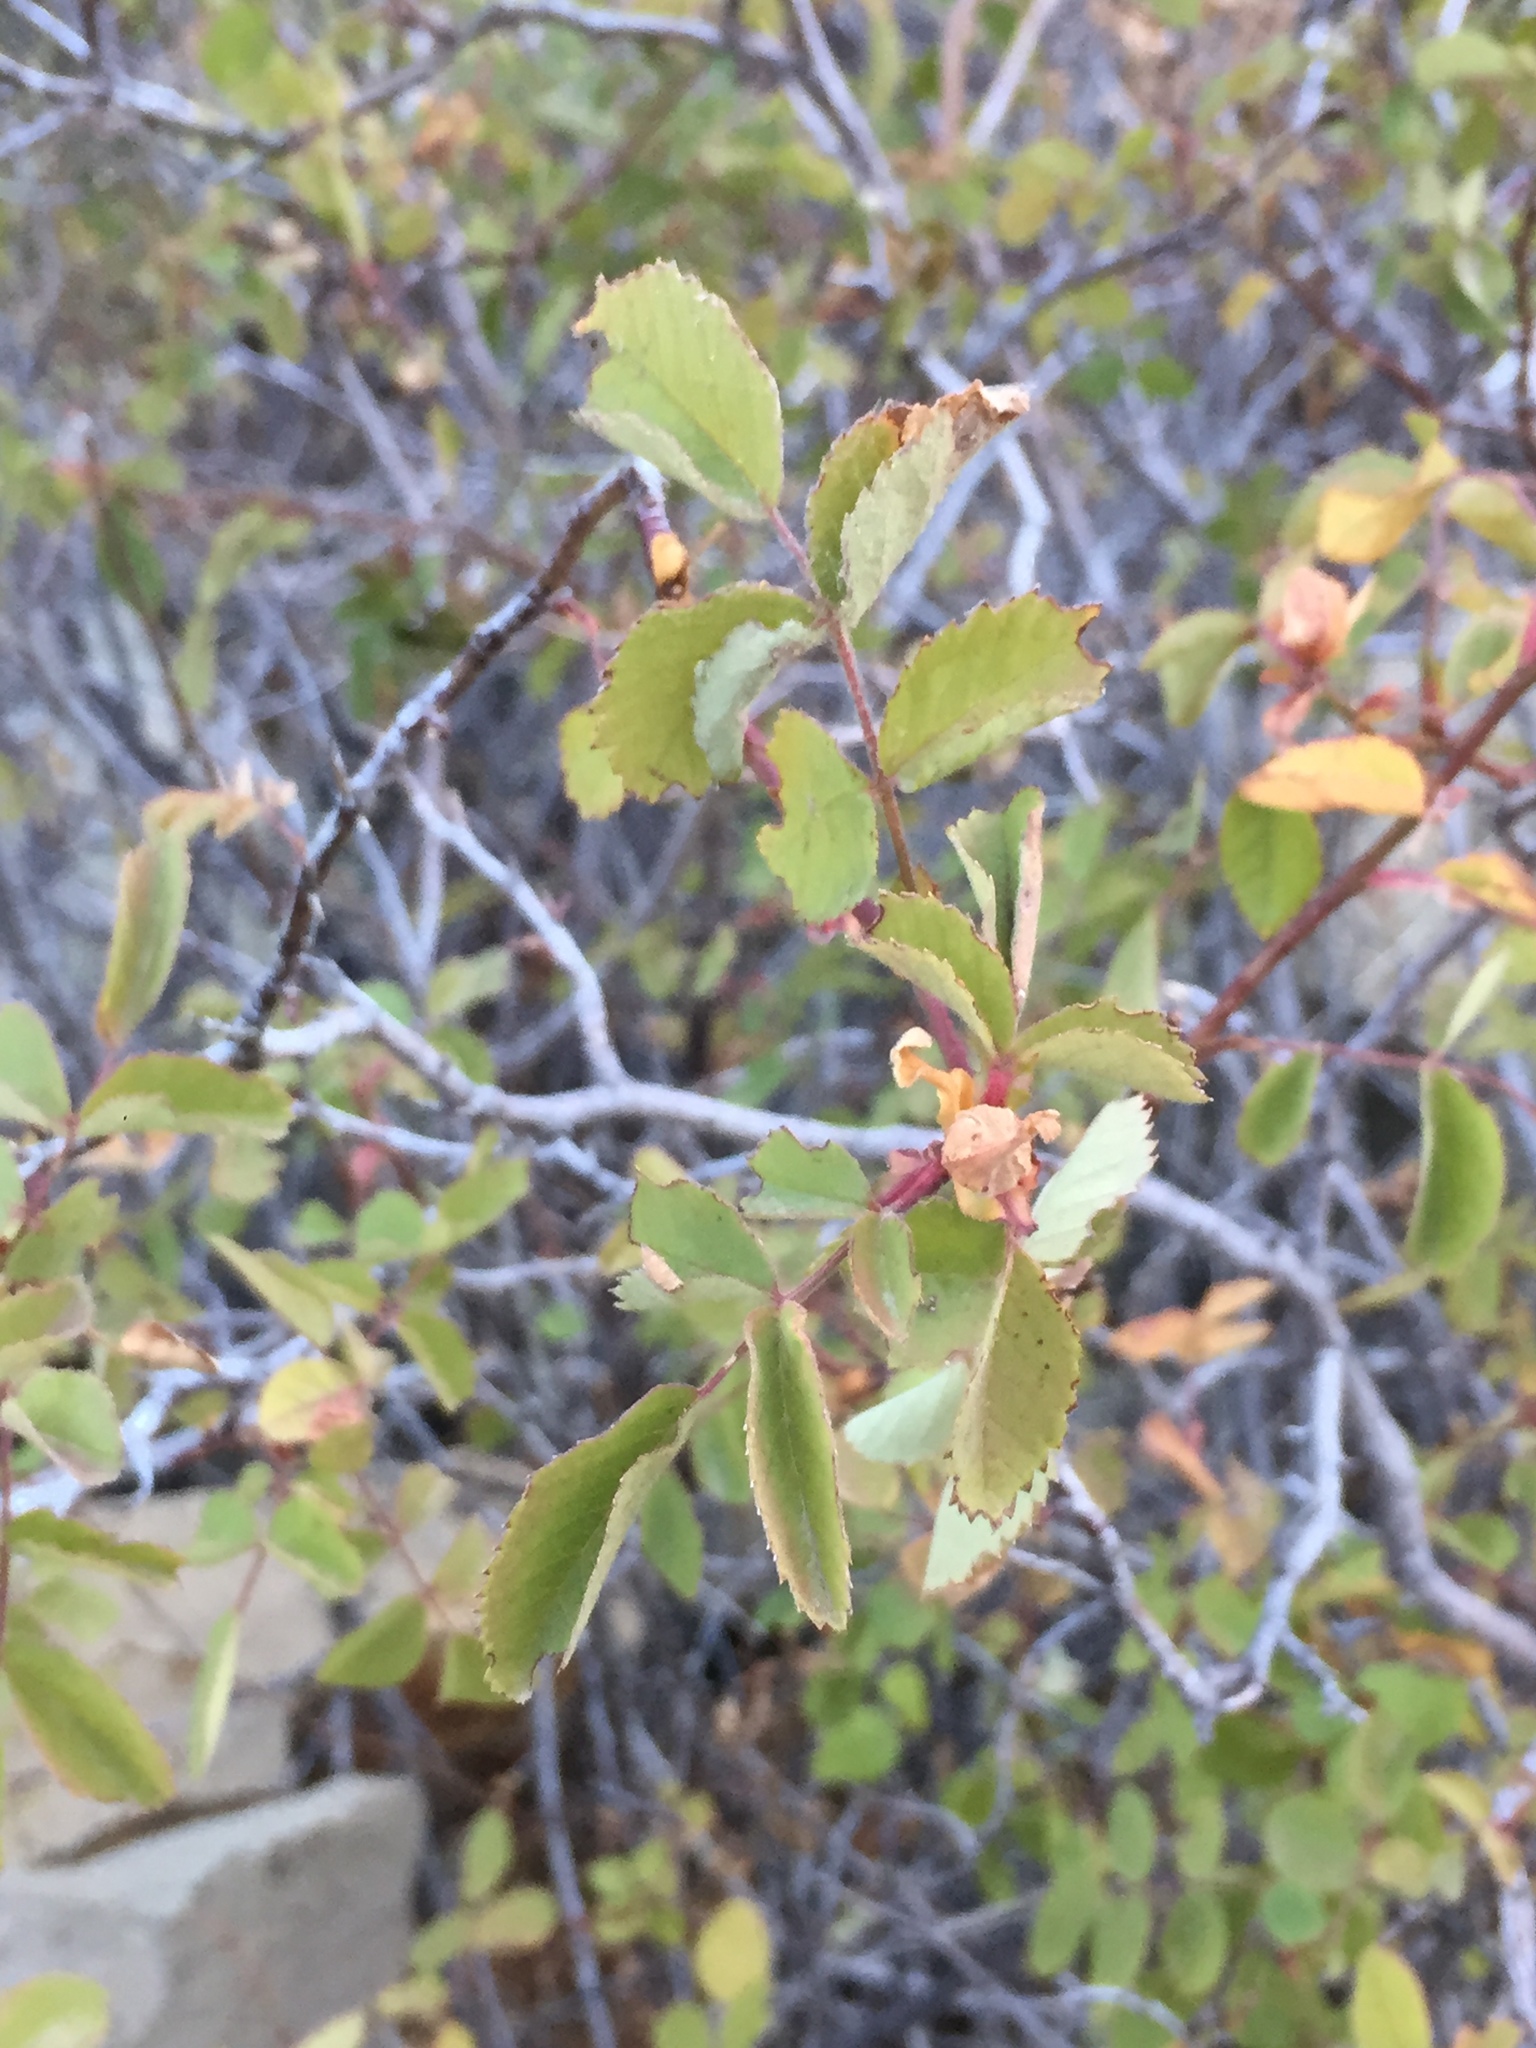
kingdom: Plantae
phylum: Tracheophyta
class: Magnoliopsida
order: Rosales
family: Rosaceae
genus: Rosa
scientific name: Rosa californica
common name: California rose
